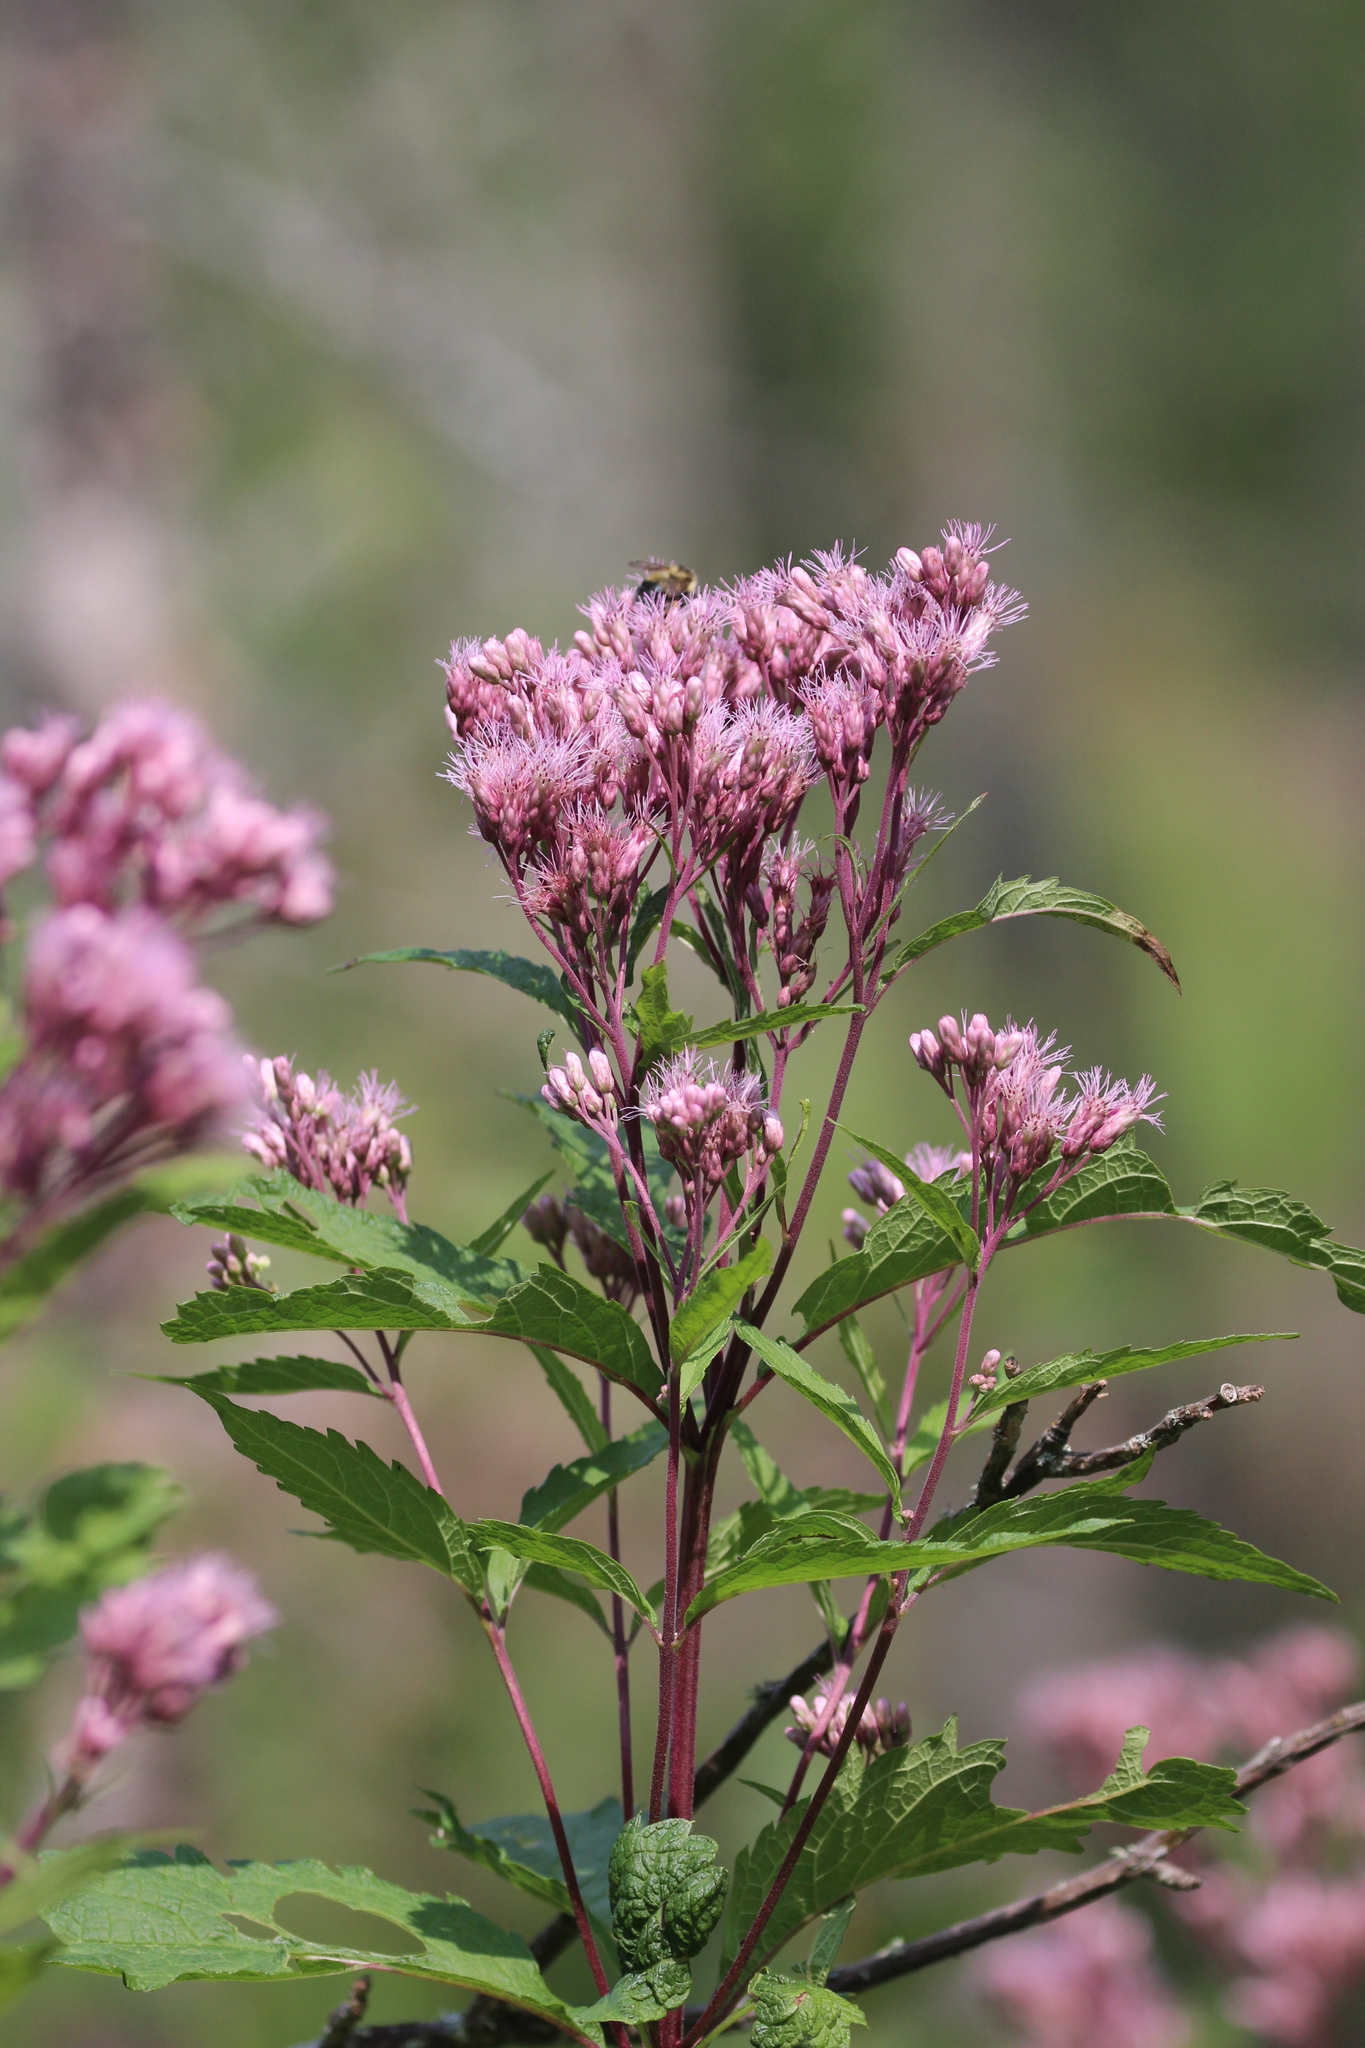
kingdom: Plantae
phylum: Tracheophyta
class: Magnoliopsida
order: Asterales
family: Asteraceae
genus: Eutrochium
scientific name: Eutrochium maculatum
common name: Spotted joe pye weed
